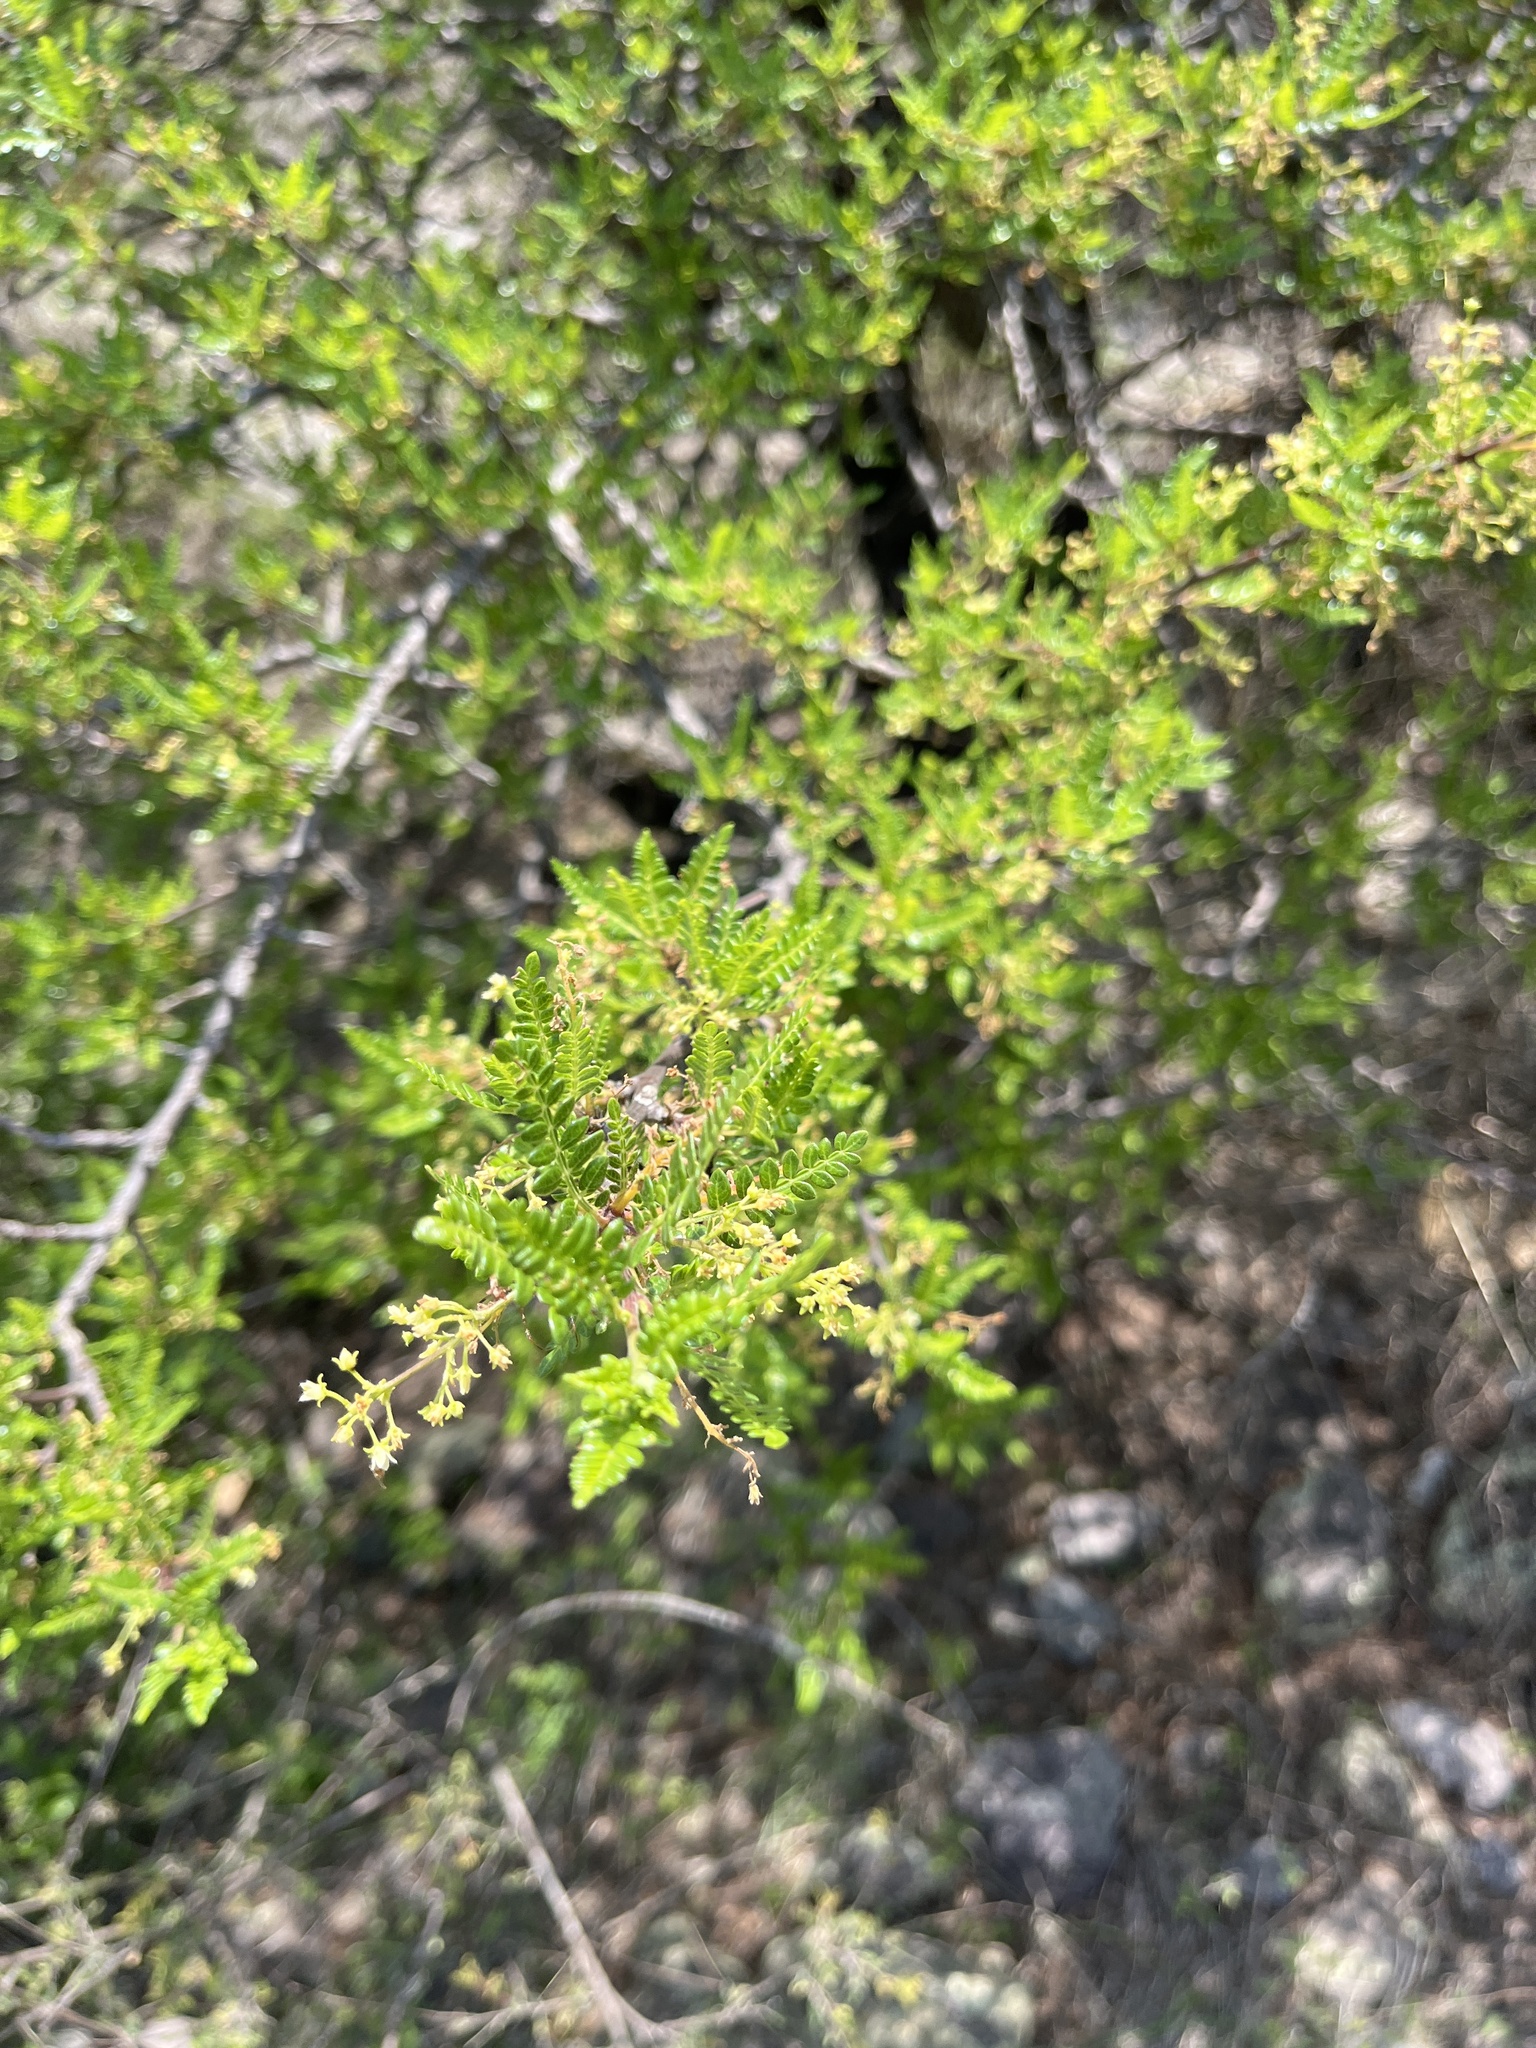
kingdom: Plantae
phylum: Tracheophyta
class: Magnoliopsida
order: Sapindales
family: Burseraceae
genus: Bursera
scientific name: Bursera bipinnata
